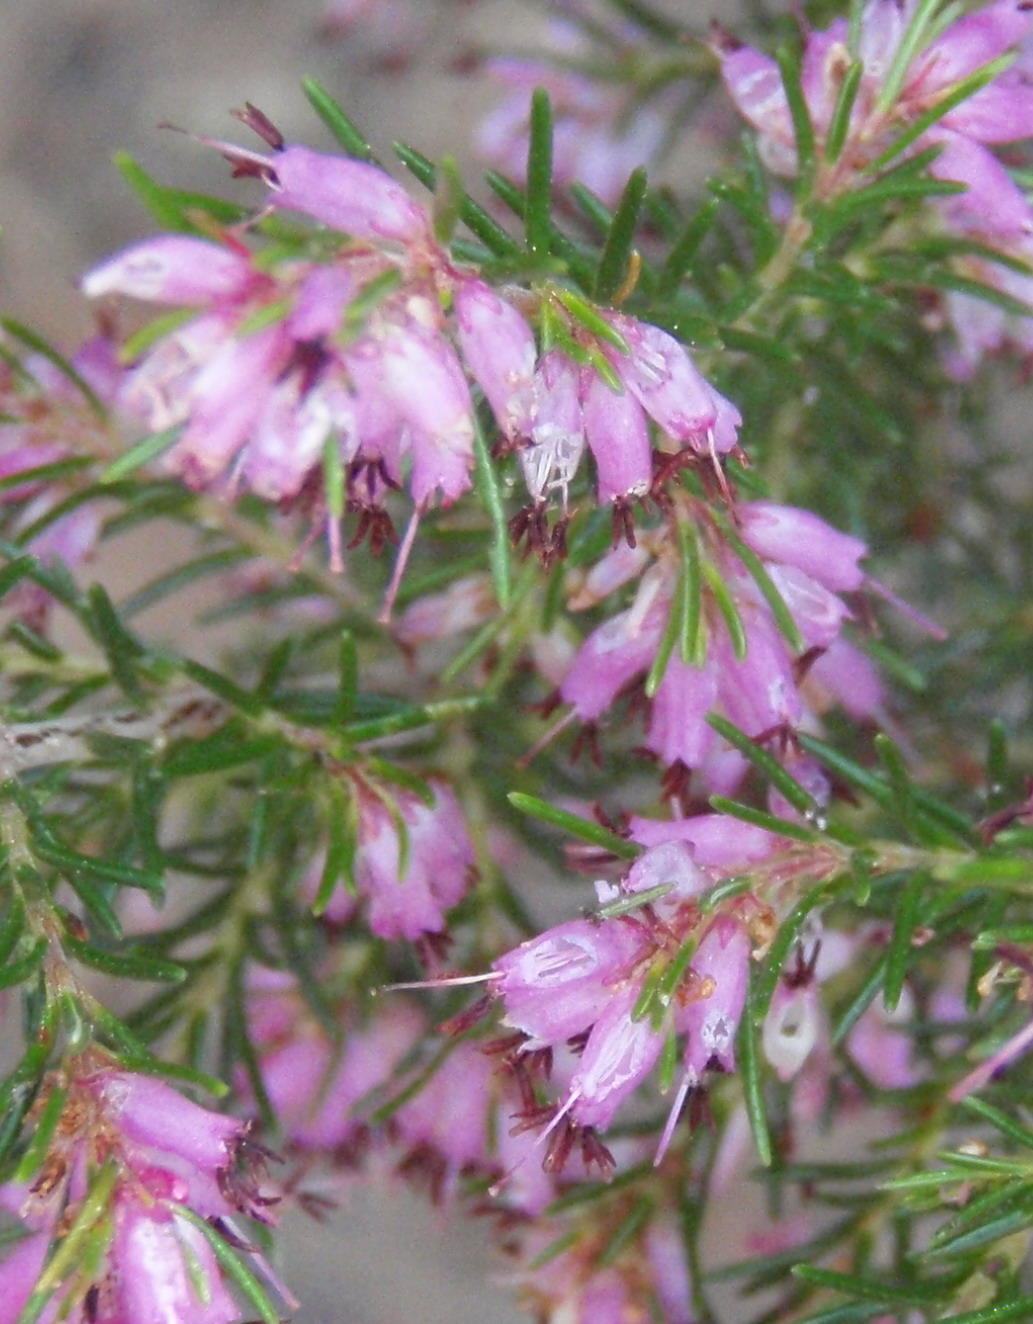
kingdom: Plantae
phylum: Tracheophyta
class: Magnoliopsida
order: Ericales
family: Ericaceae
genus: Erica
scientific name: Erica quadrifida
